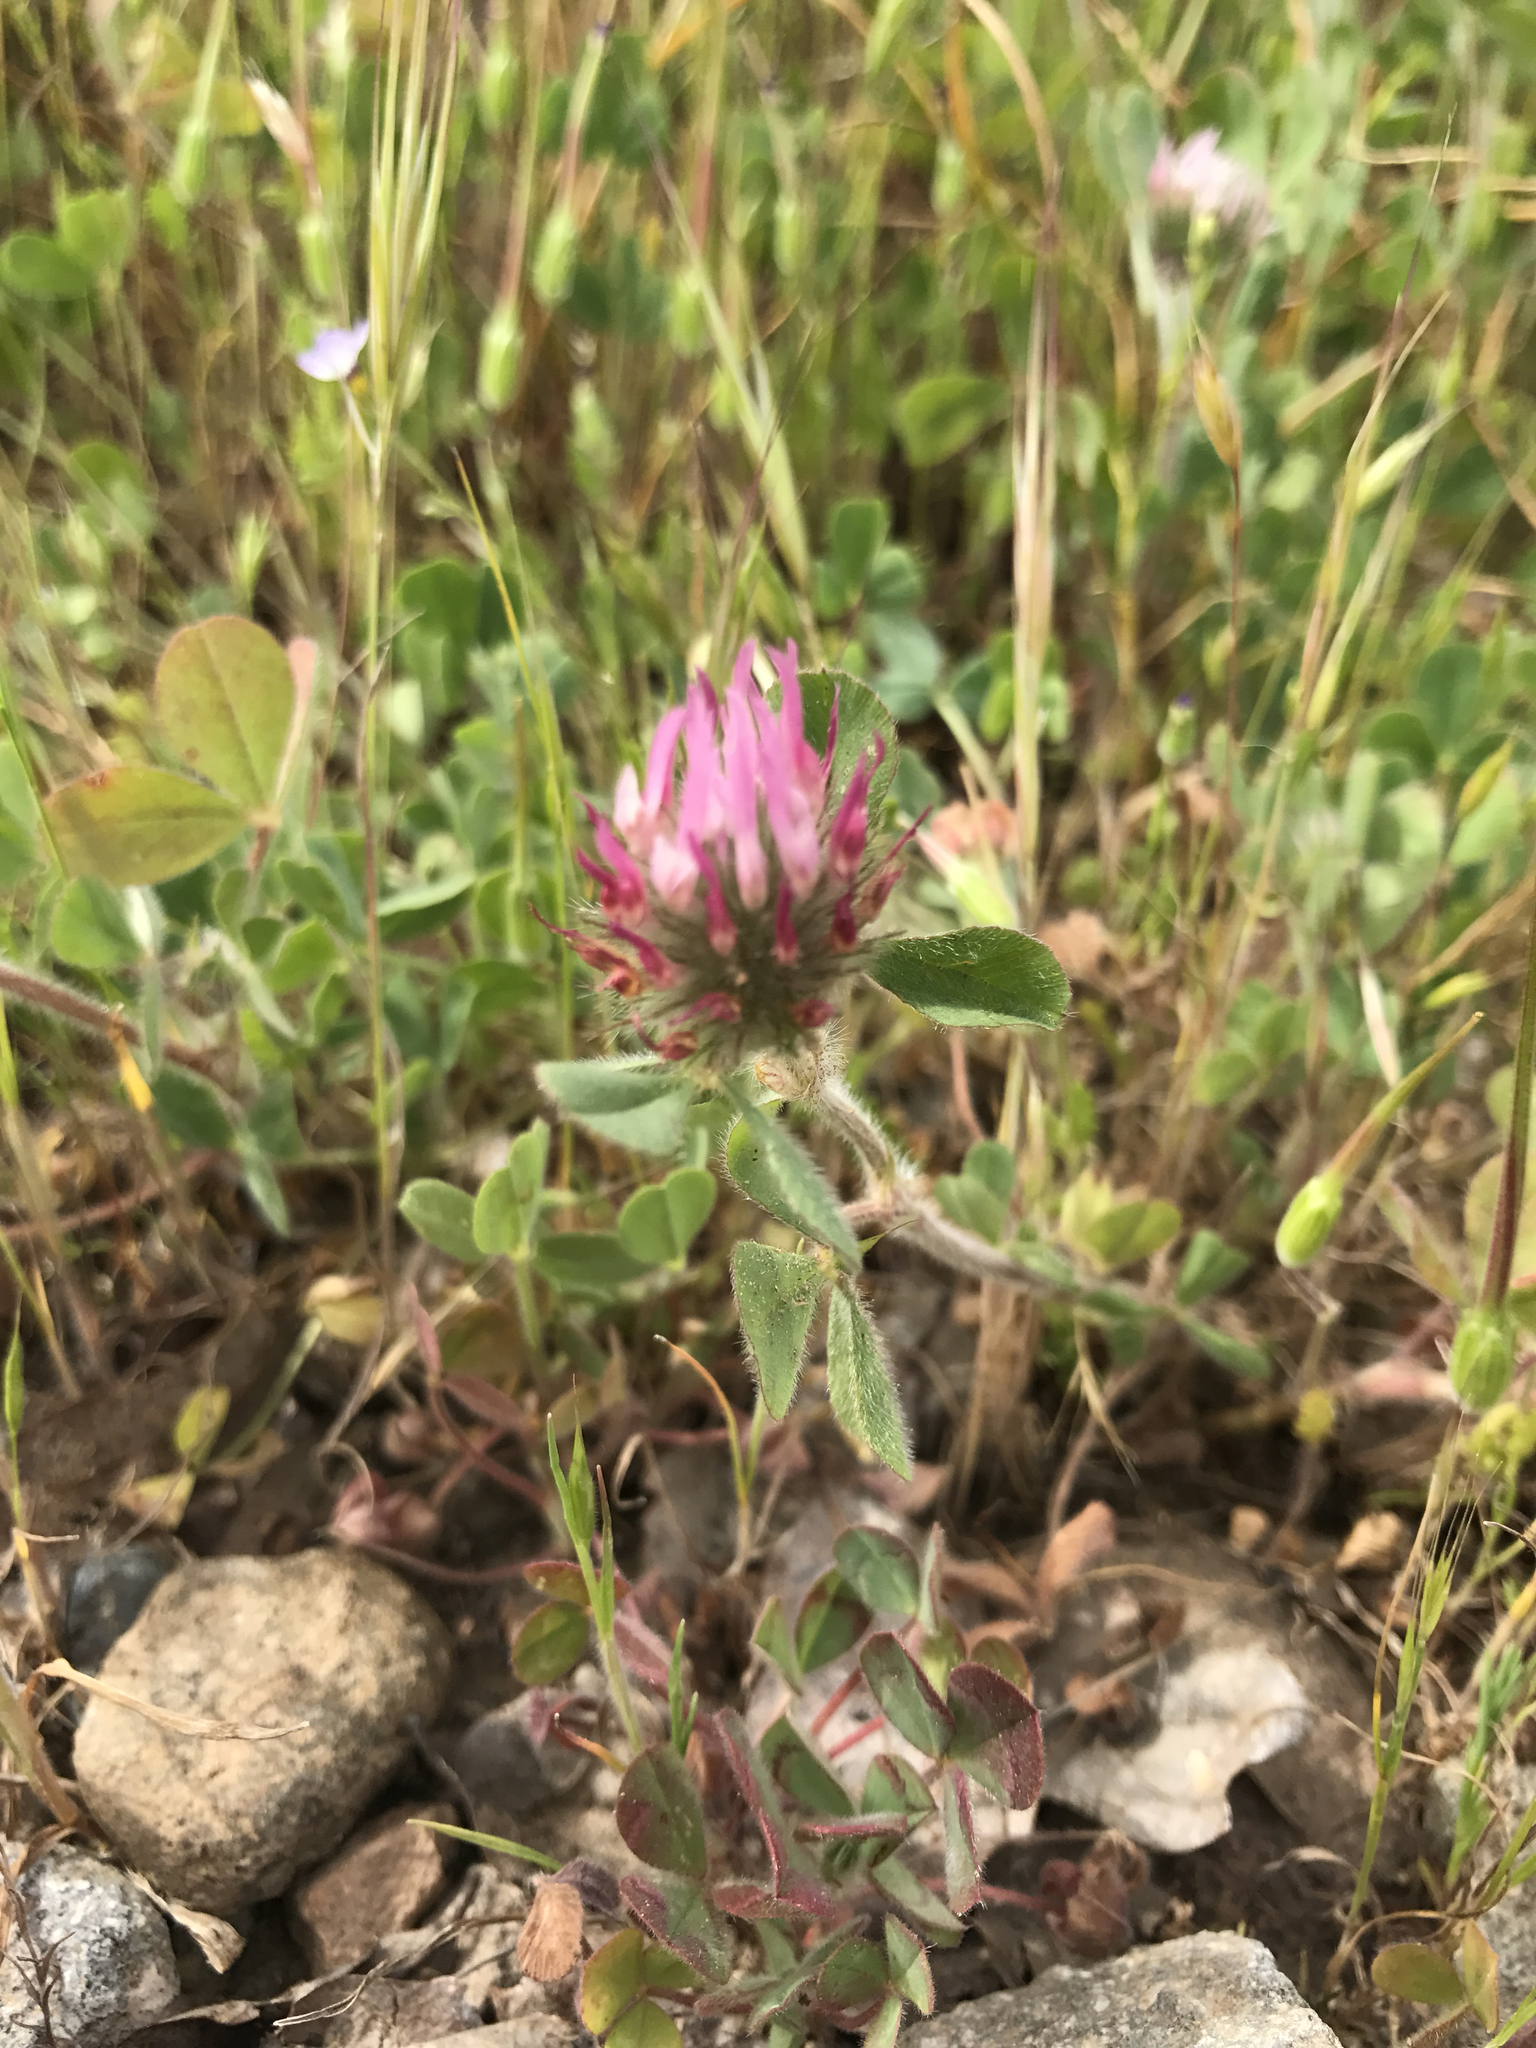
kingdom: Plantae
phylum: Tracheophyta
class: Magnoliopsida
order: Fabales
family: Fabaceae
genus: Trifolium
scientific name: Trifolium hirtum
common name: Rose clover
